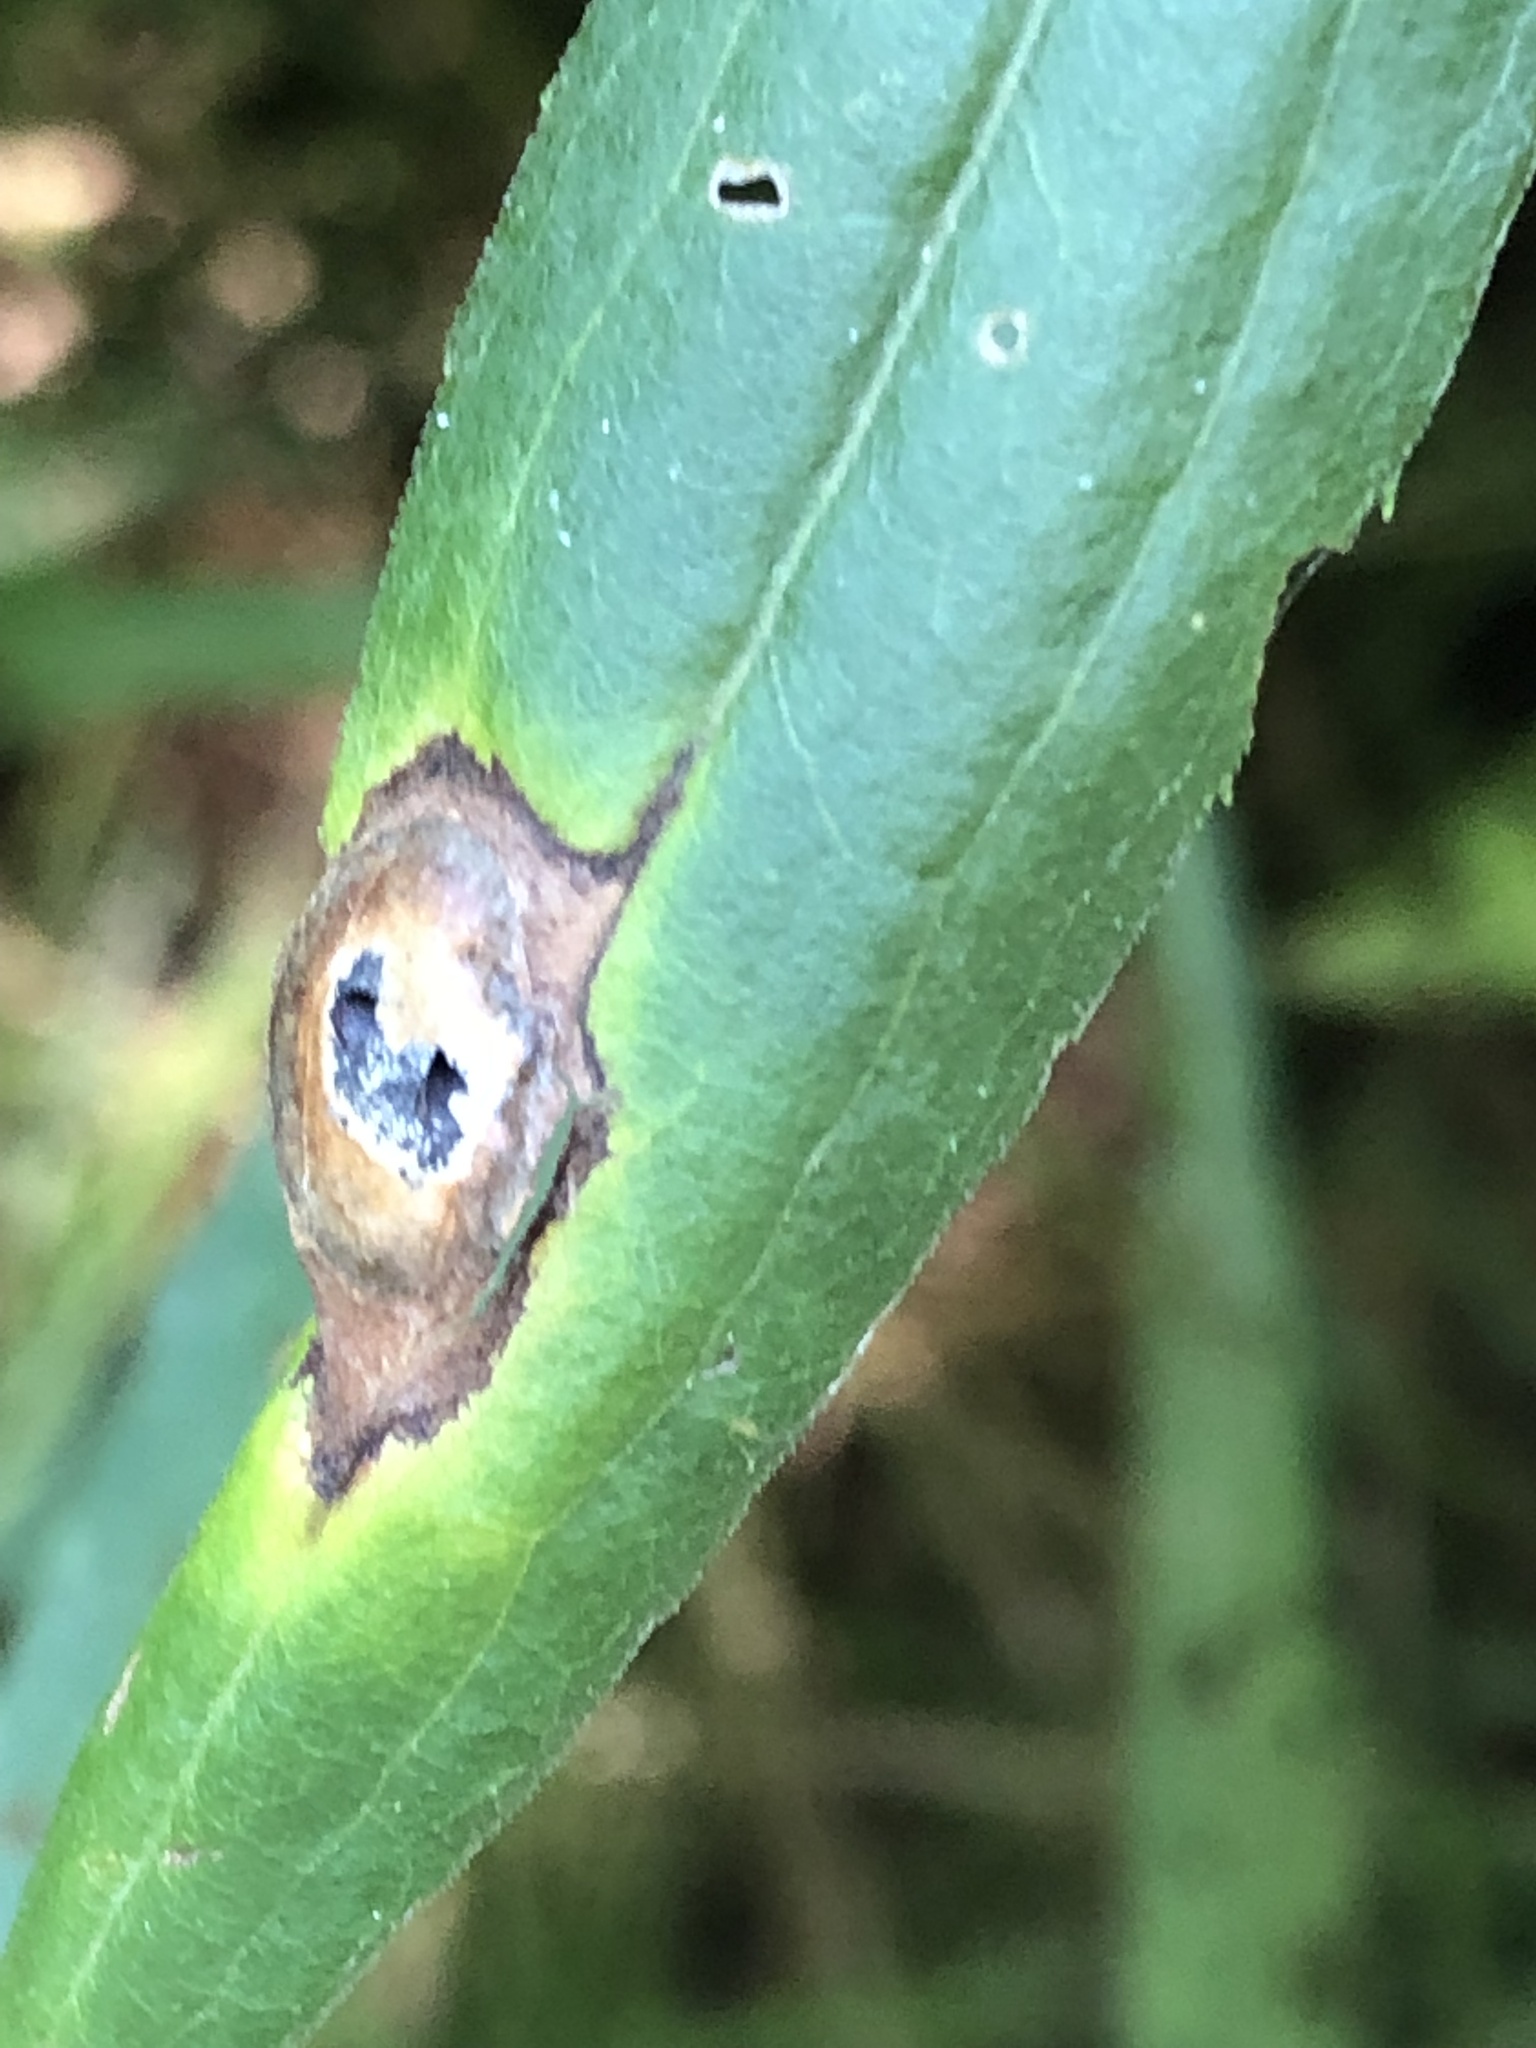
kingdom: Animalia
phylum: Arthropoda
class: Insecta
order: Diptera
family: Cecidomyiidae
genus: Asteromyia
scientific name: Asteromyia carbonifera
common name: Carbonifera goldenrod gall midge
